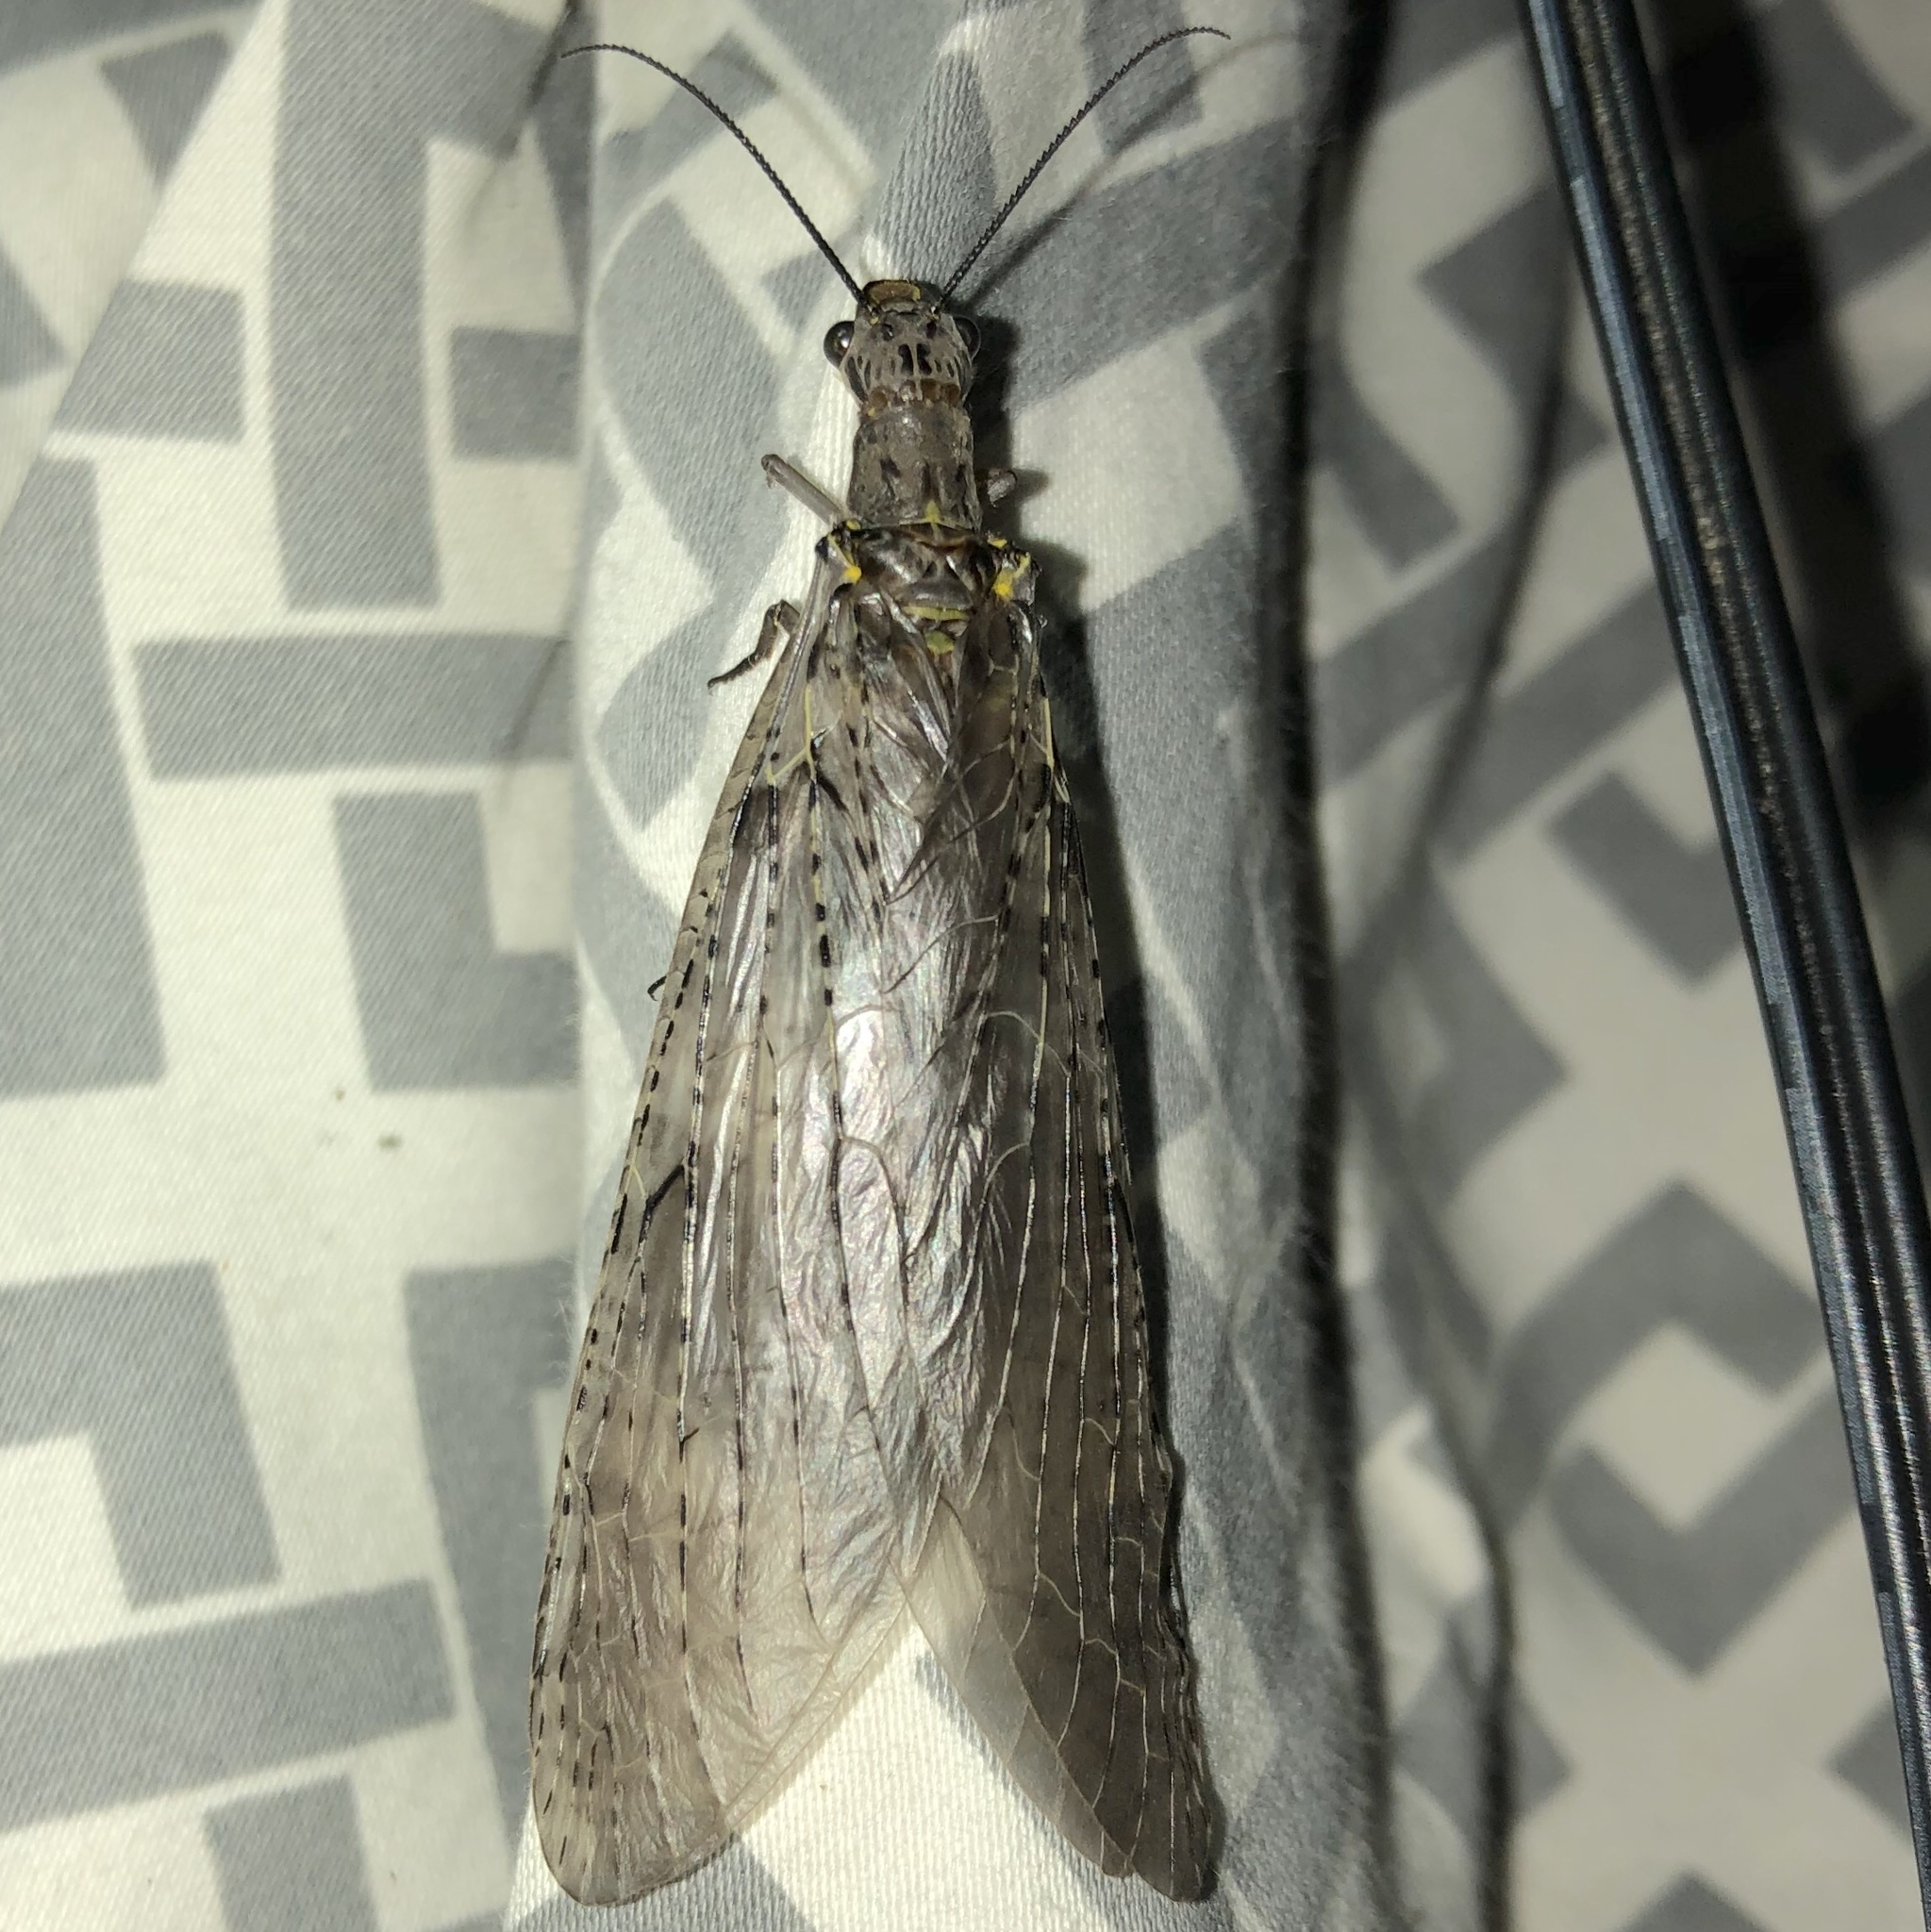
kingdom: Animalia
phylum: Arthropoda
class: Insecta
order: Megaloptera
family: Corydalidae
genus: Chauliodes
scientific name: Chauliodes rastricornis
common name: Spring fishfly
